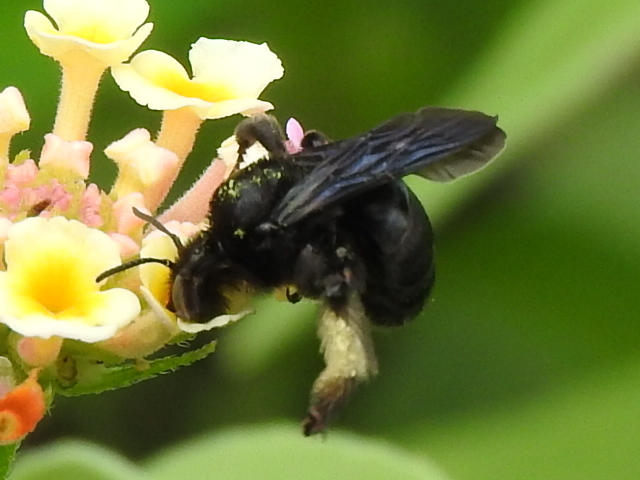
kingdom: Animalia
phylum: Arthropoda
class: Insecta
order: Hymenoptera
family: Apidae
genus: Melissodes
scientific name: Melissodes bimaculatus
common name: Two-spotted long-horned bee
